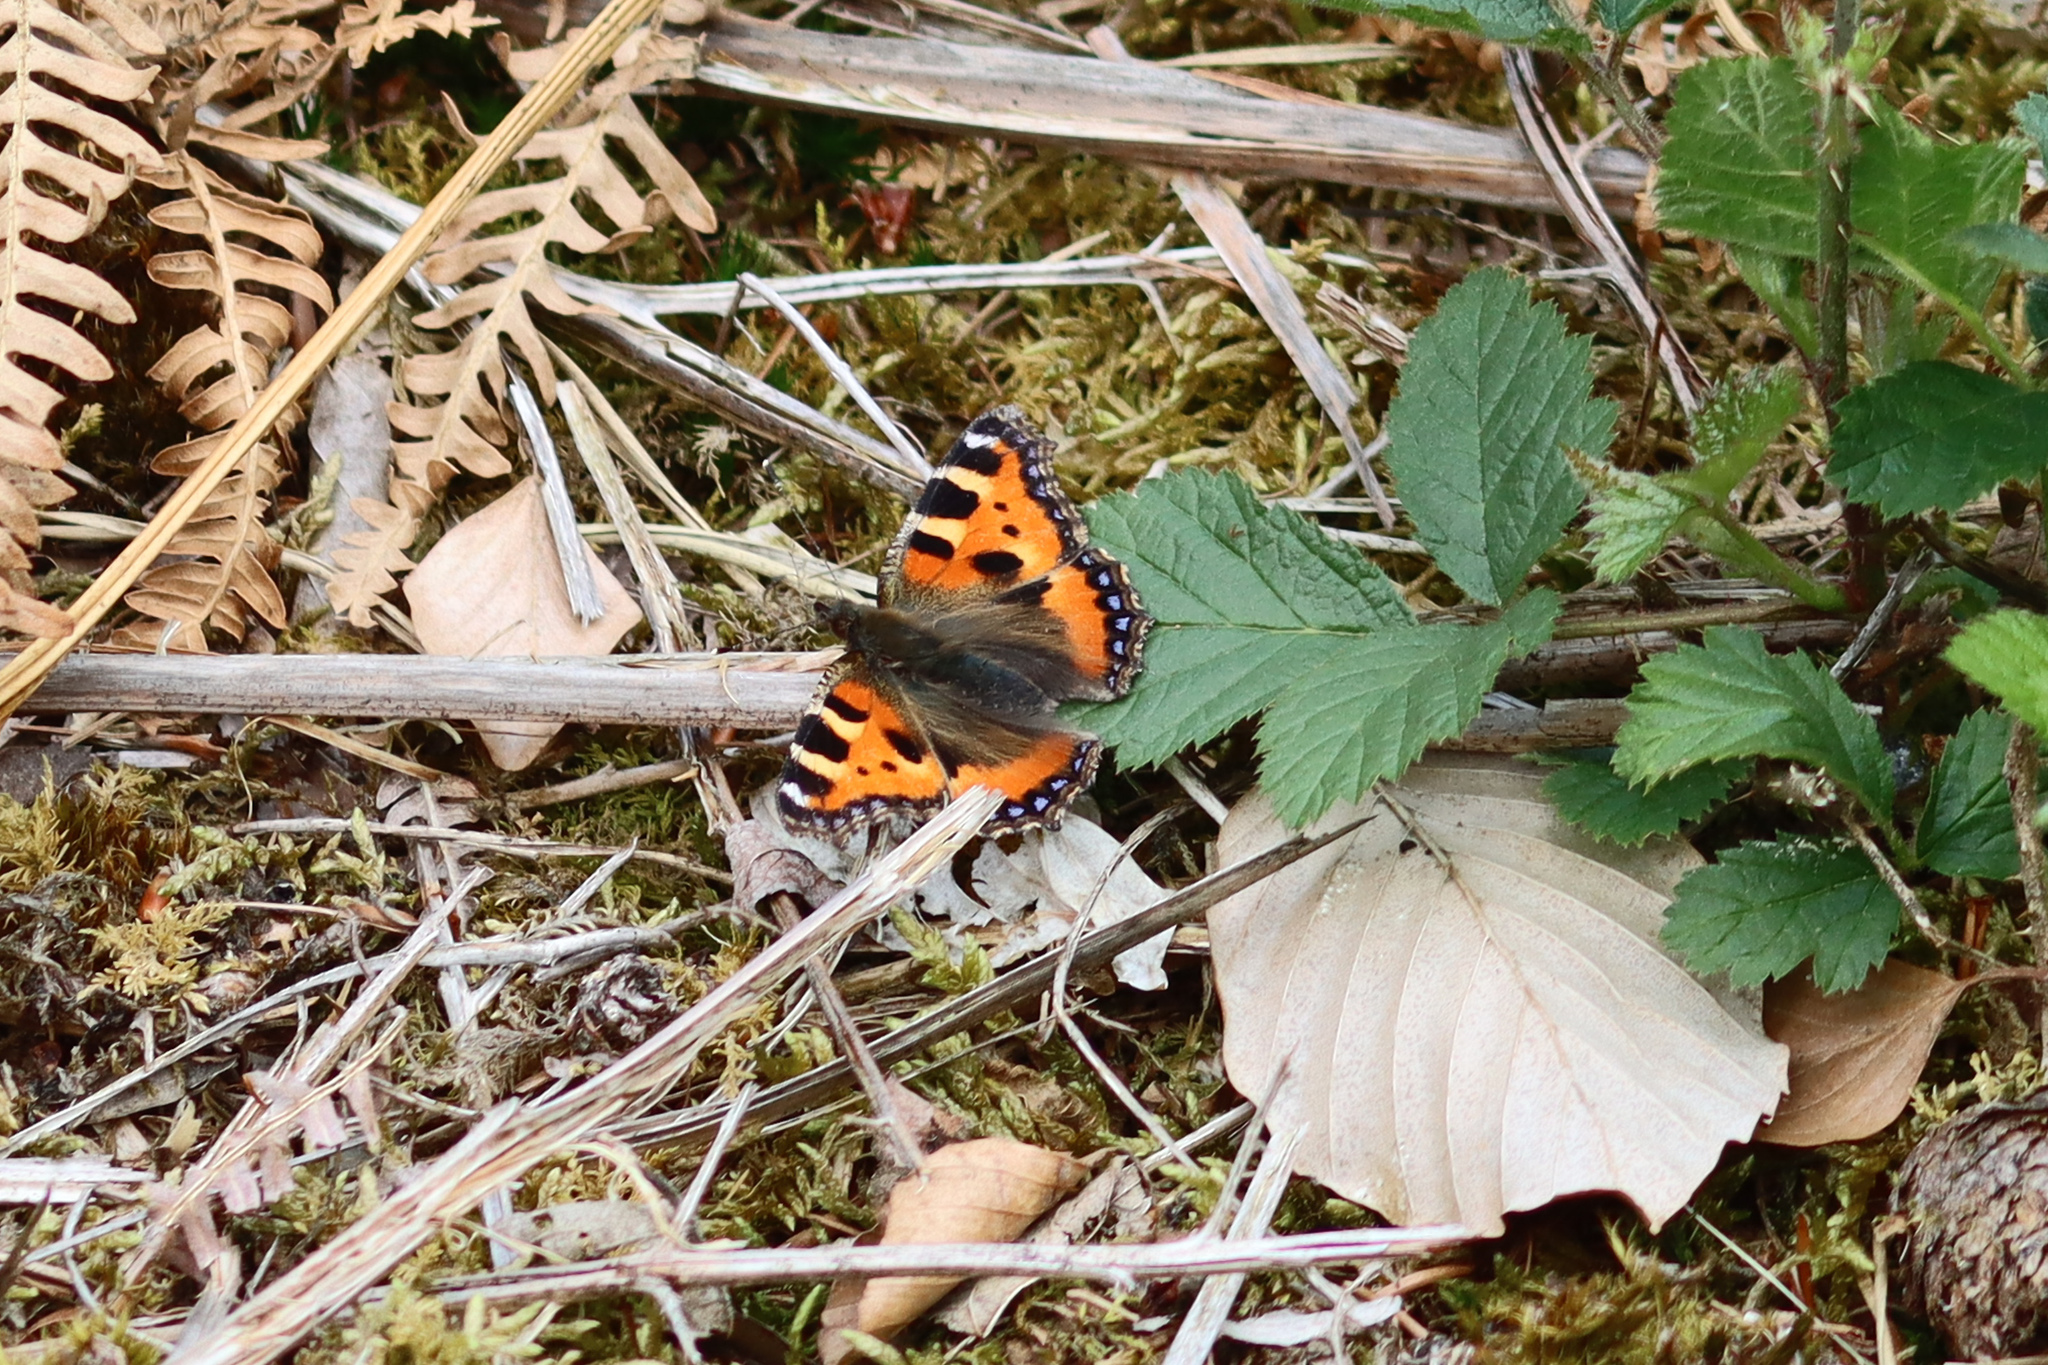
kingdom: Animalia
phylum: Arthropoda
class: Insecta
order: Lepidoptera
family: Nymphalidae
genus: Aglais
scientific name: Aglais urticae
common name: Small tortoiseshell
